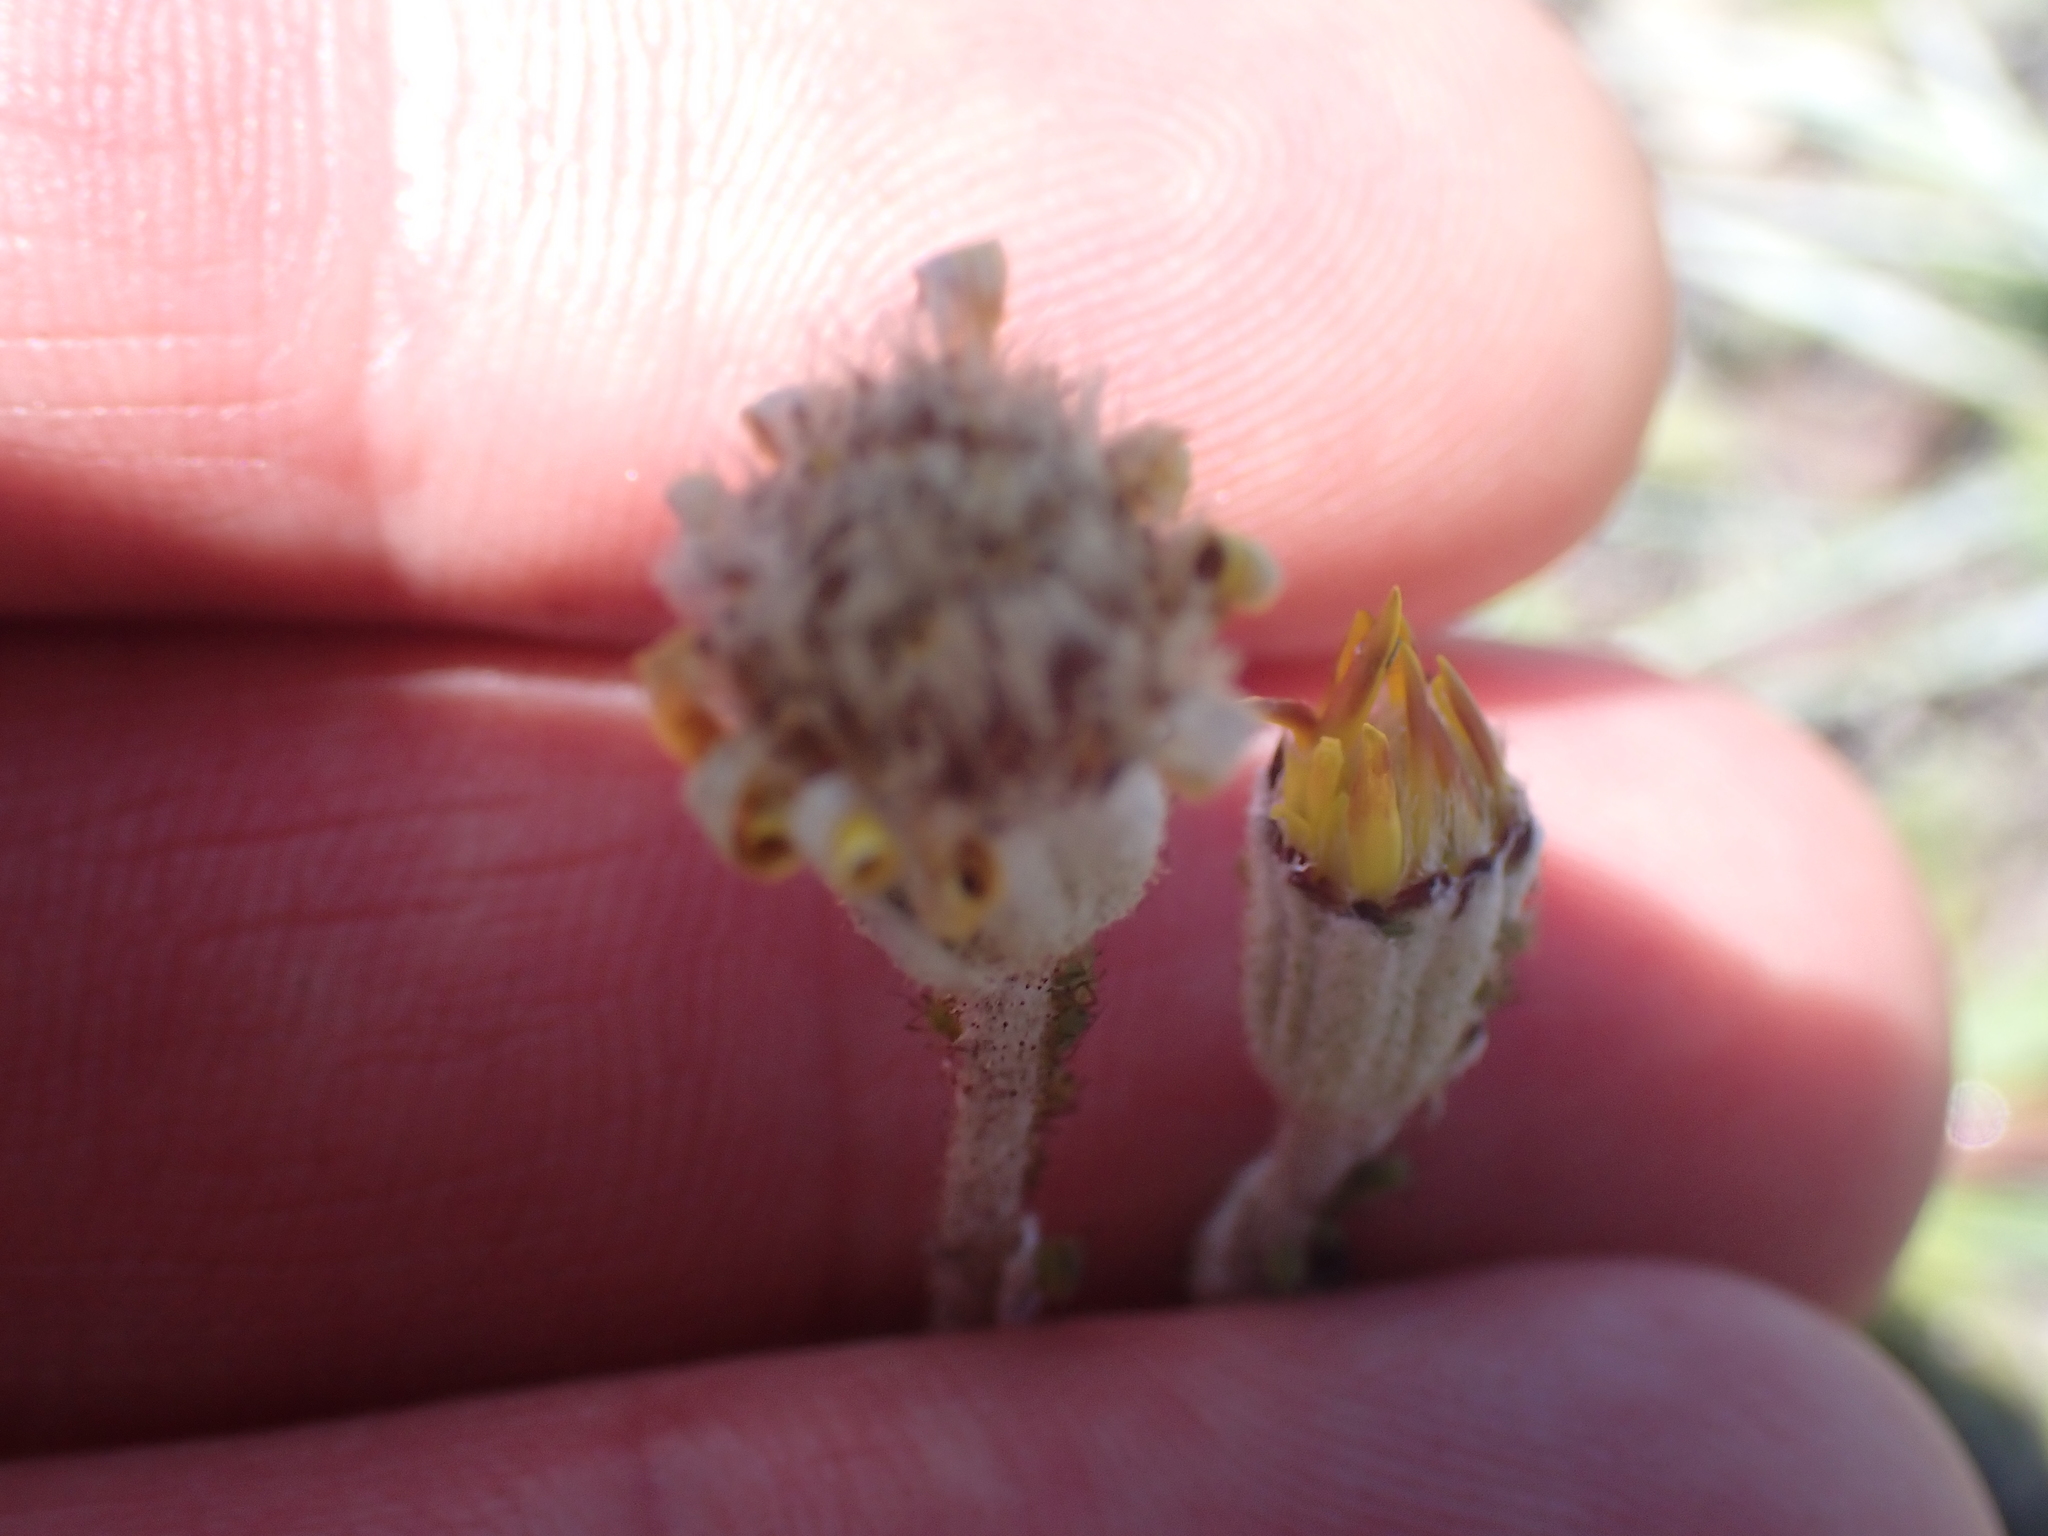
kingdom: Plantae
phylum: Tracheophyta
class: Magnoliopsida
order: Asterales
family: Asteraceae
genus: Brachyglottis
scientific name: Brachyglottis haastii
